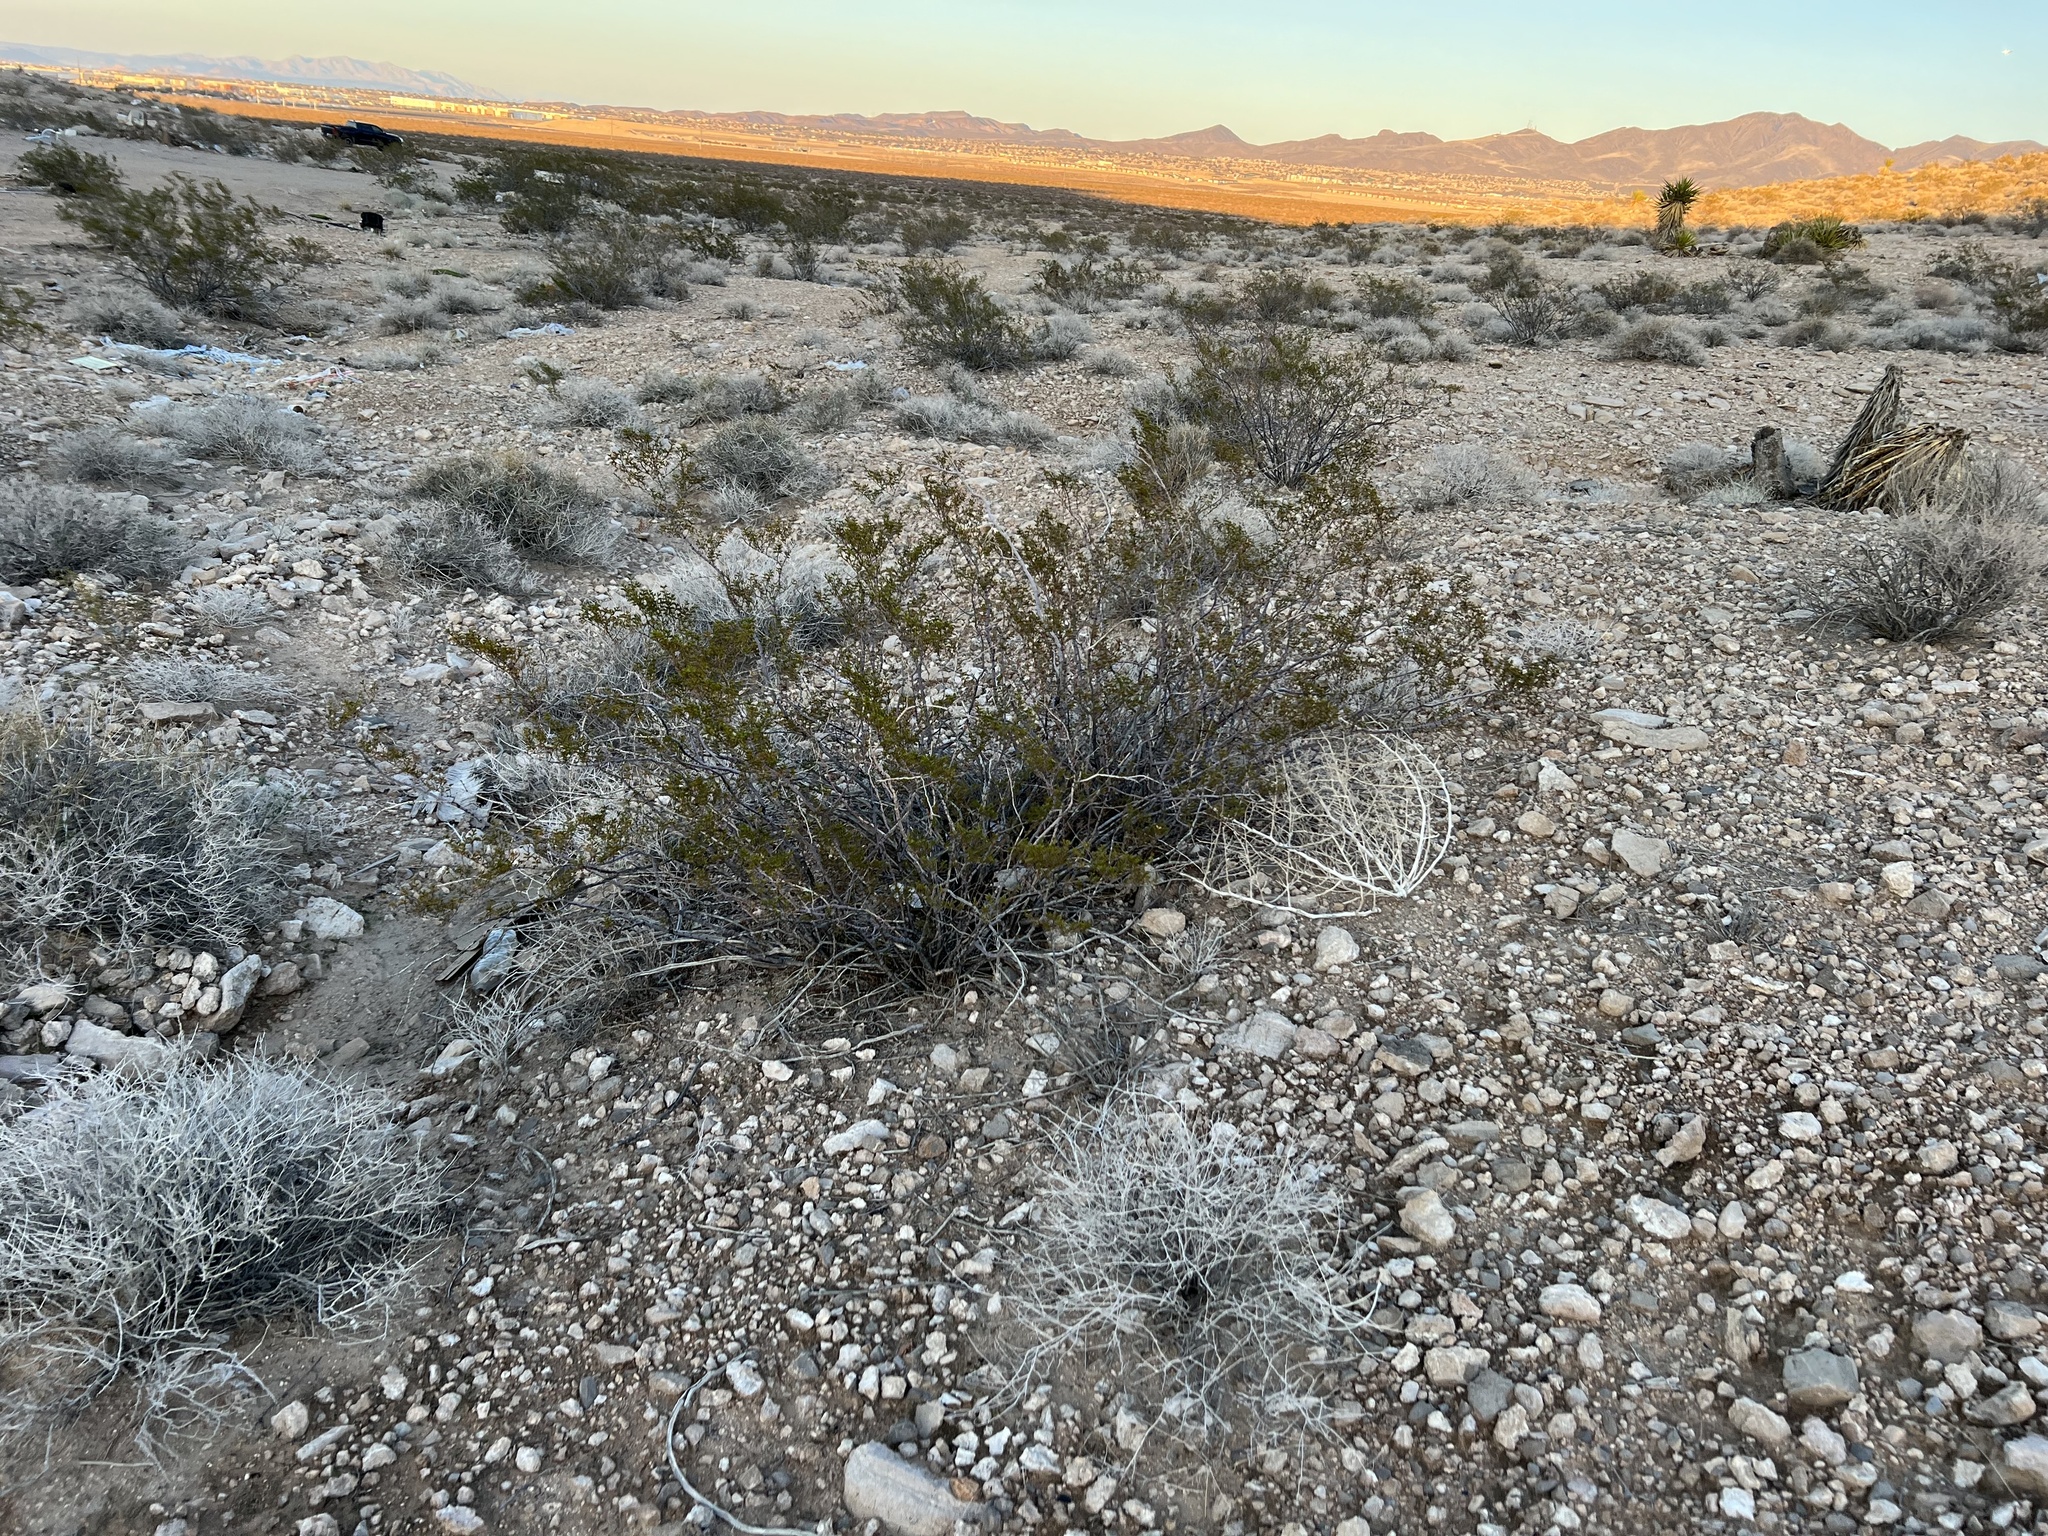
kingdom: Plantae
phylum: Tracheophyta
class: Magnoliopsida
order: Zygophyllales
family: Zygophyllaceae
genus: Larrea
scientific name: Larrea tridentata
